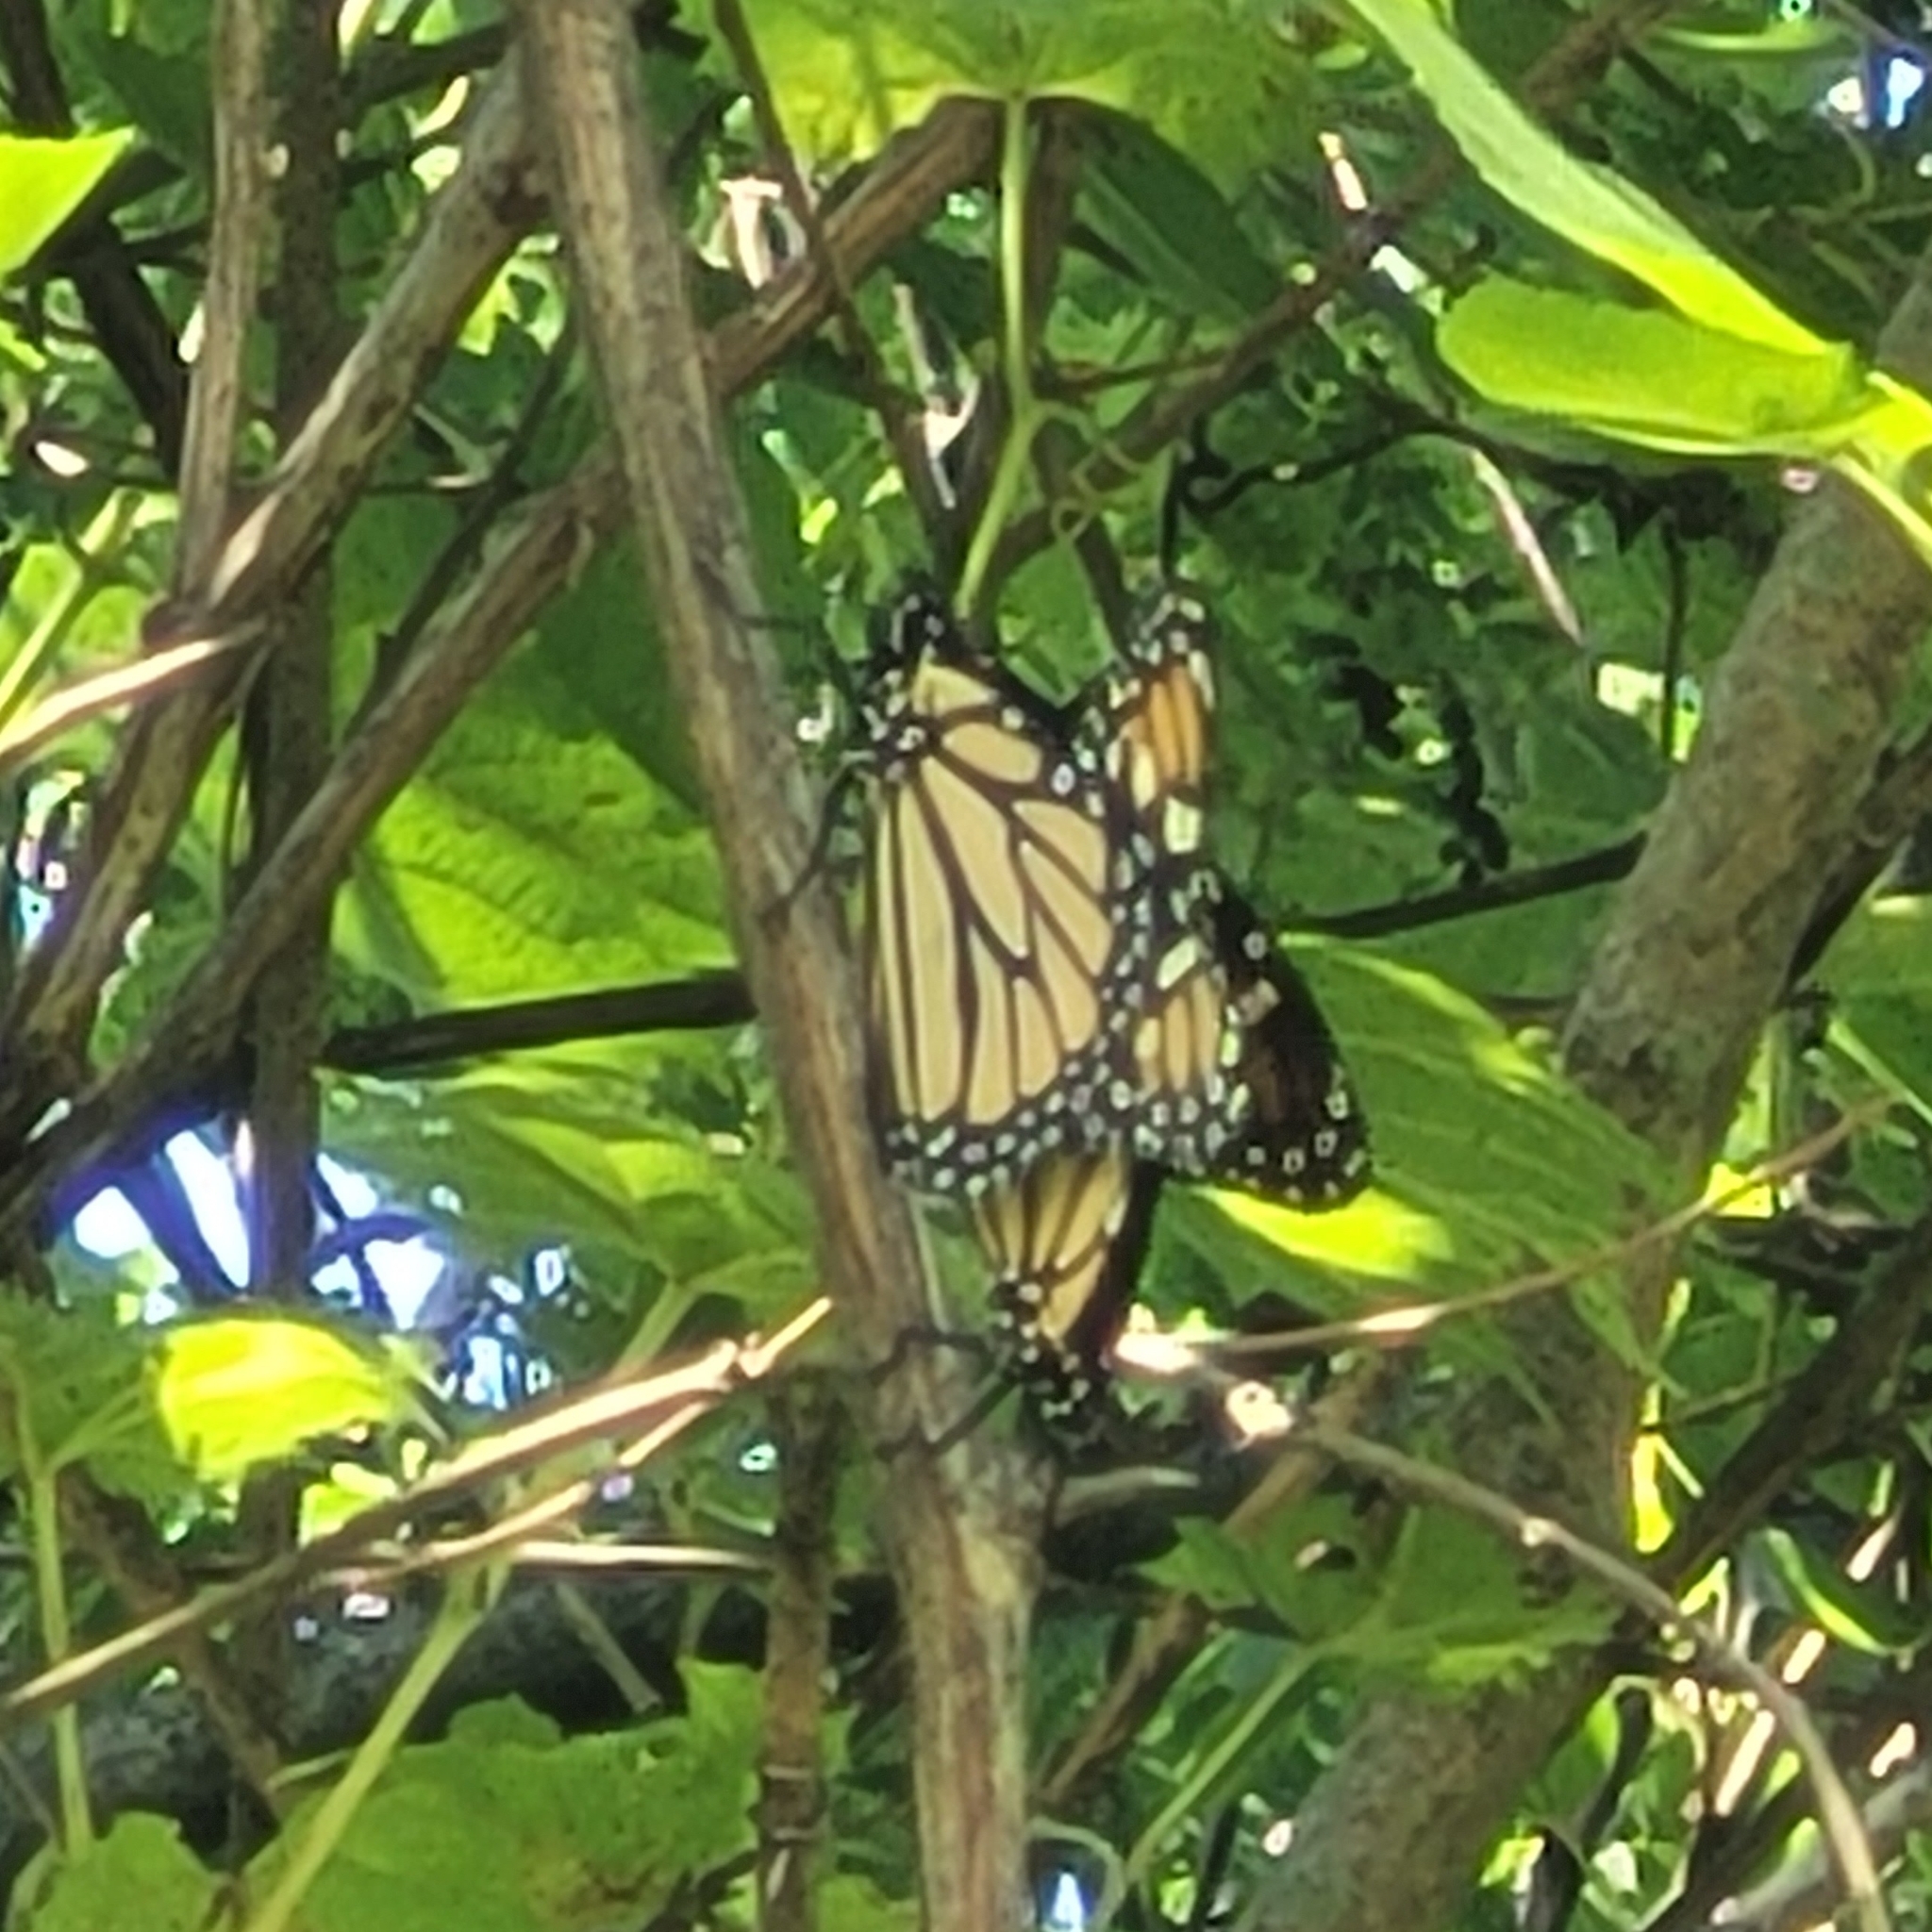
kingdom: Animalia
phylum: Arthropoda
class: Insecta
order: Lepidoptera
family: Nymphalidae
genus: Danaus
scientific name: Danaus plexippus
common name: Monarch
